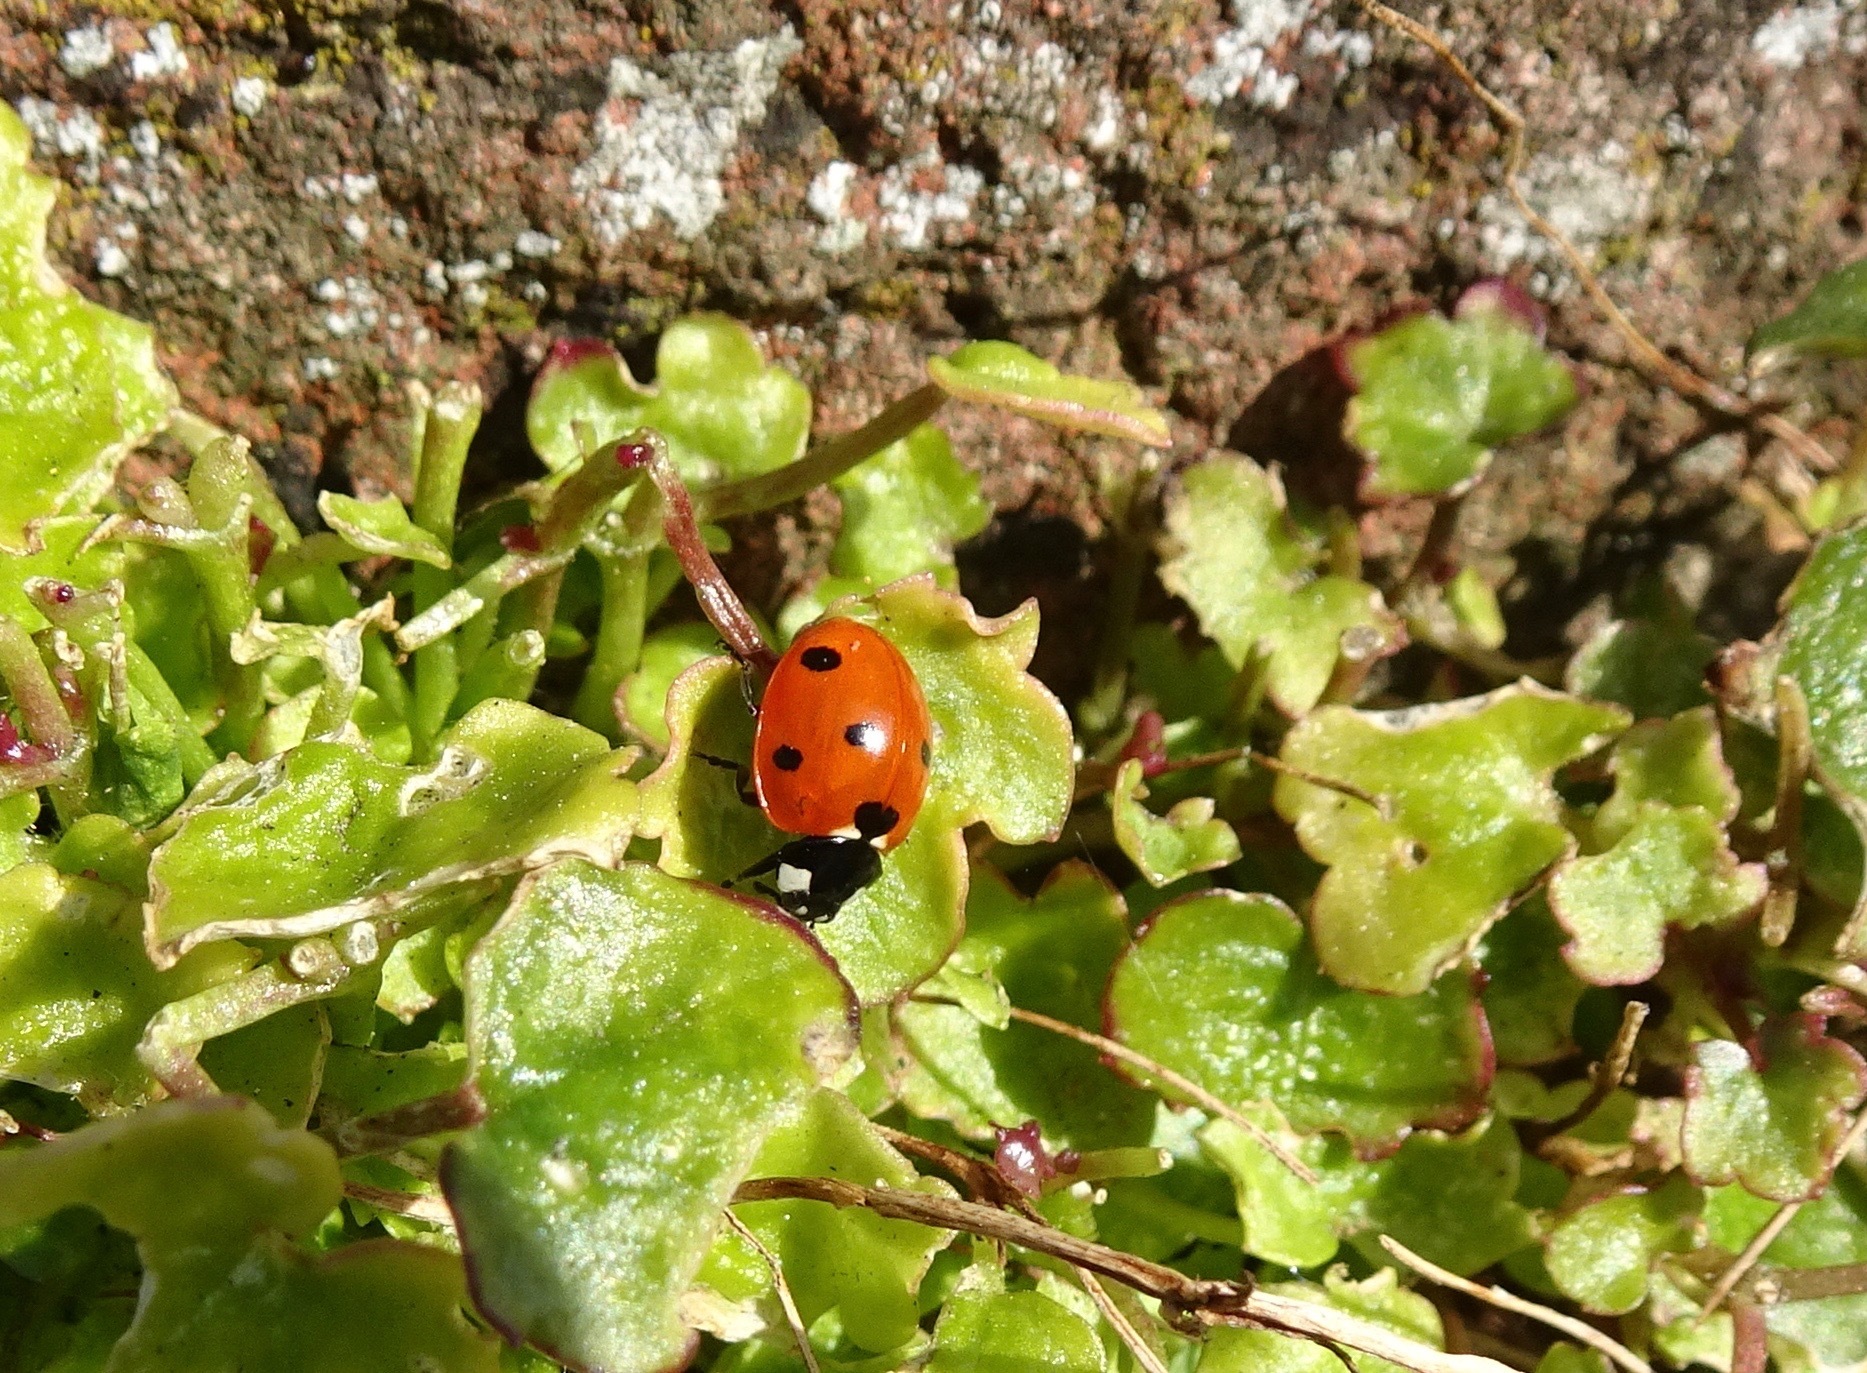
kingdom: Animalia
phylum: Arthropoda
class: Insecta
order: Coleoptera
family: Coccinellidae
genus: Coccinella
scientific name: Coccinella septempunctata
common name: Sevenspotted lady beetle
